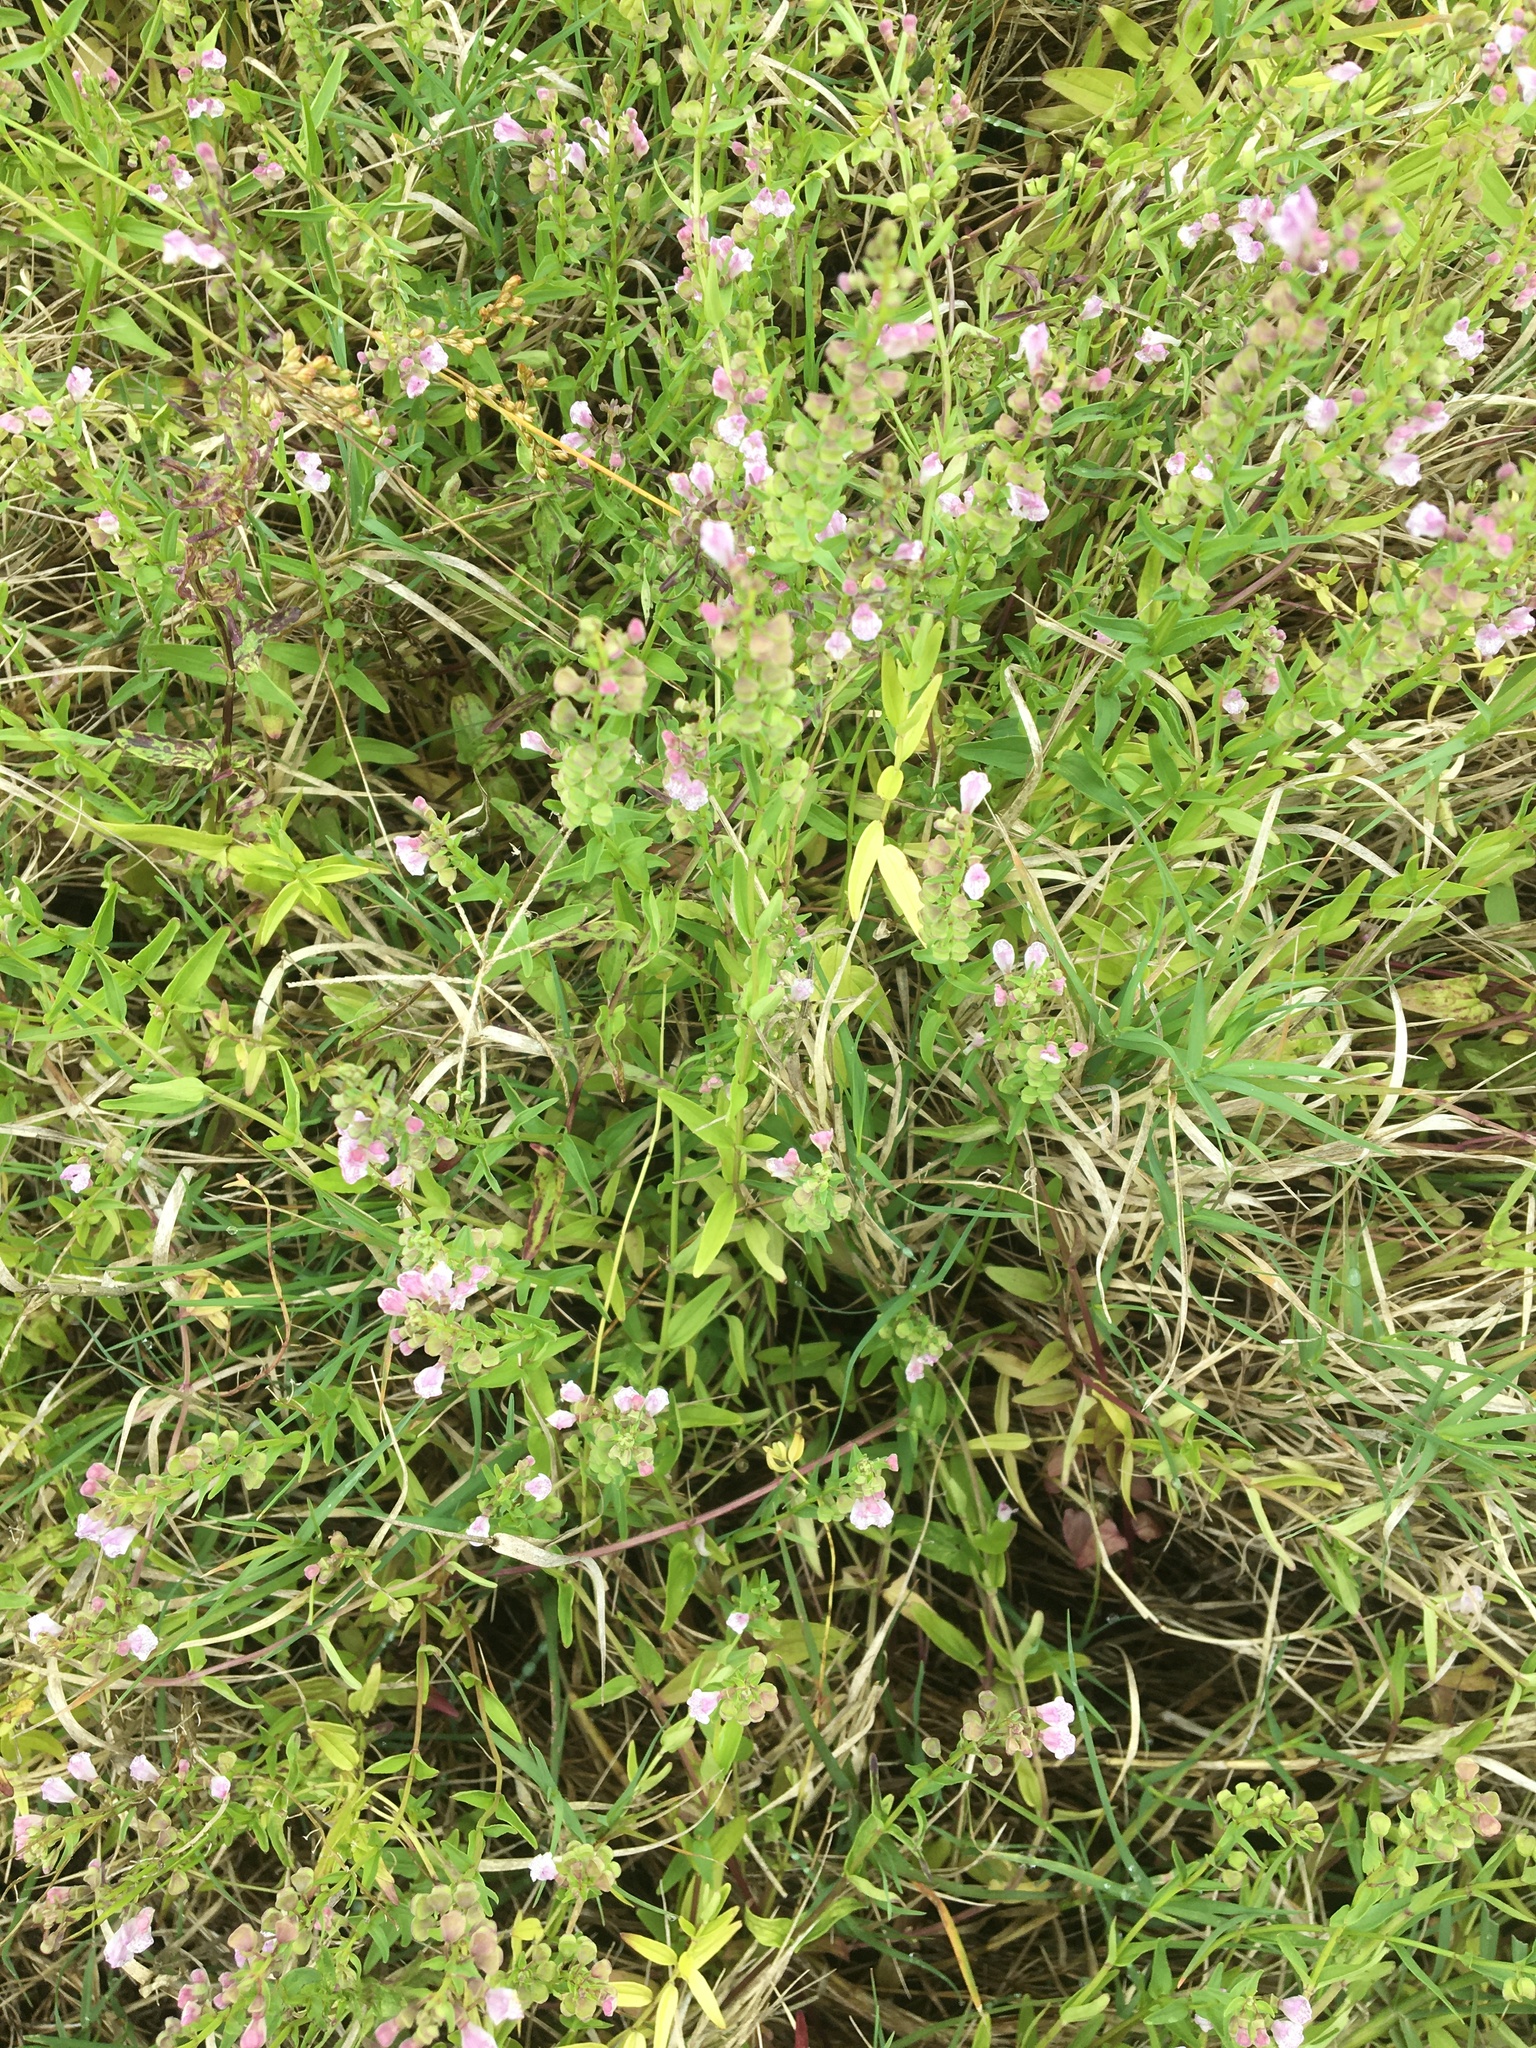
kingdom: Plantae
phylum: Tracheophyta
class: Magnoliopsida
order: Lamiales
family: Lamiaceae
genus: Scutellaria
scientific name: Scutellaria racemosa
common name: South american skullcap
